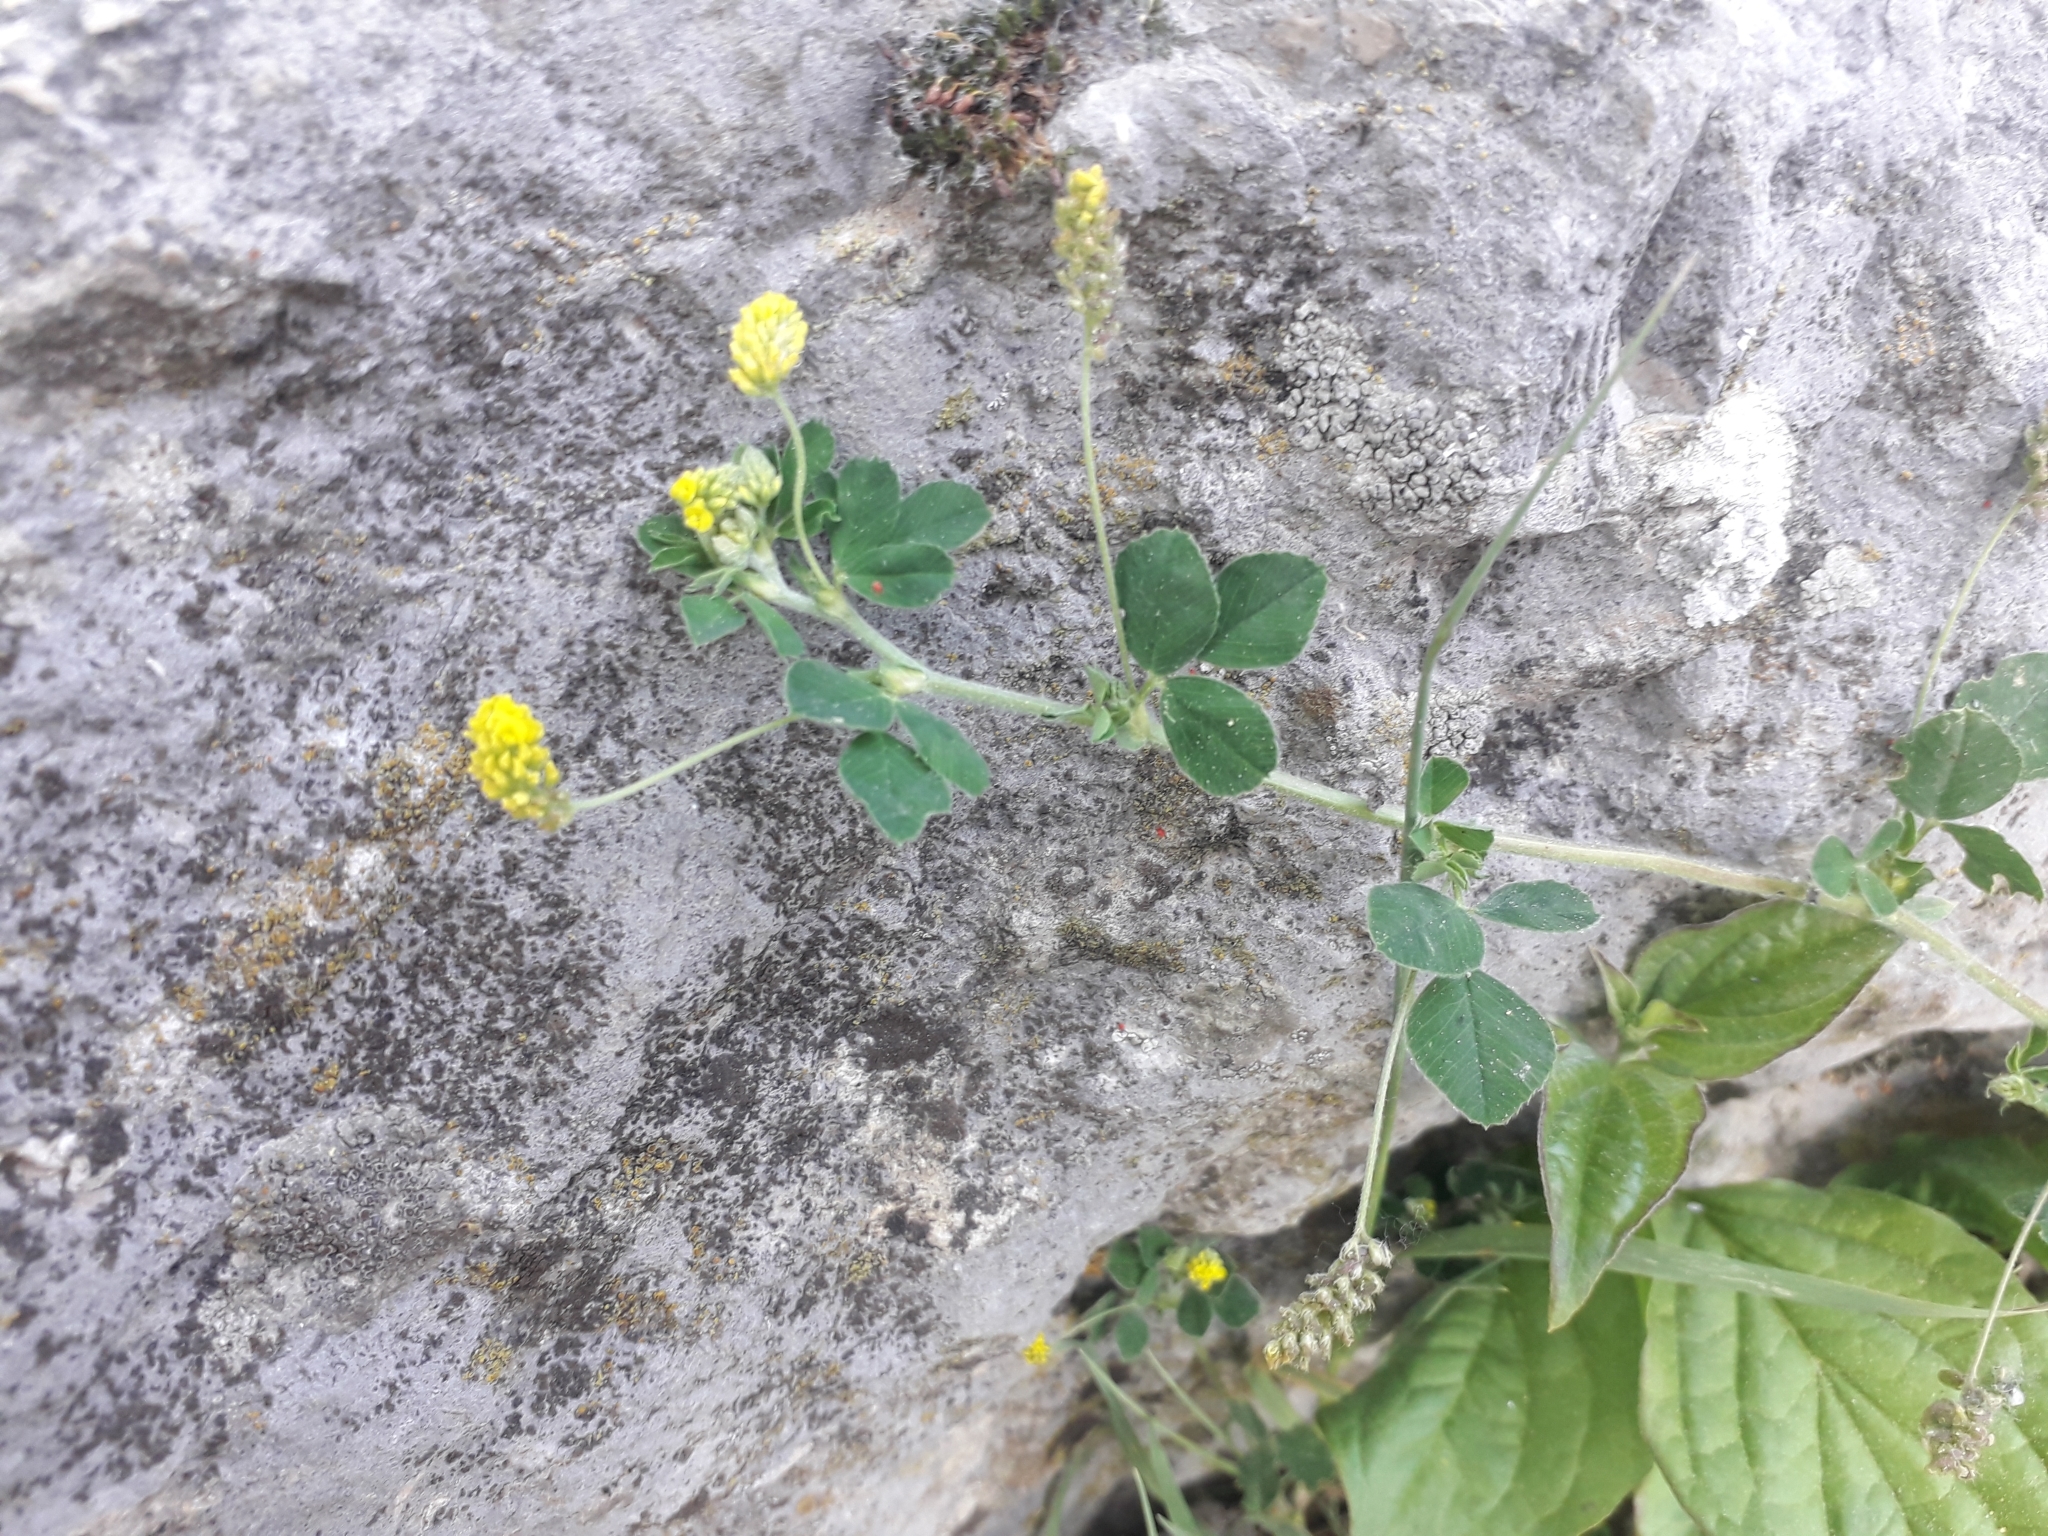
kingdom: Plantae
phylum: Tracheophyta
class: Magnoliopsida
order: Fabales
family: Fabaceae
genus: Medicago
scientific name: Medicago lupulina
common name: Black medick
